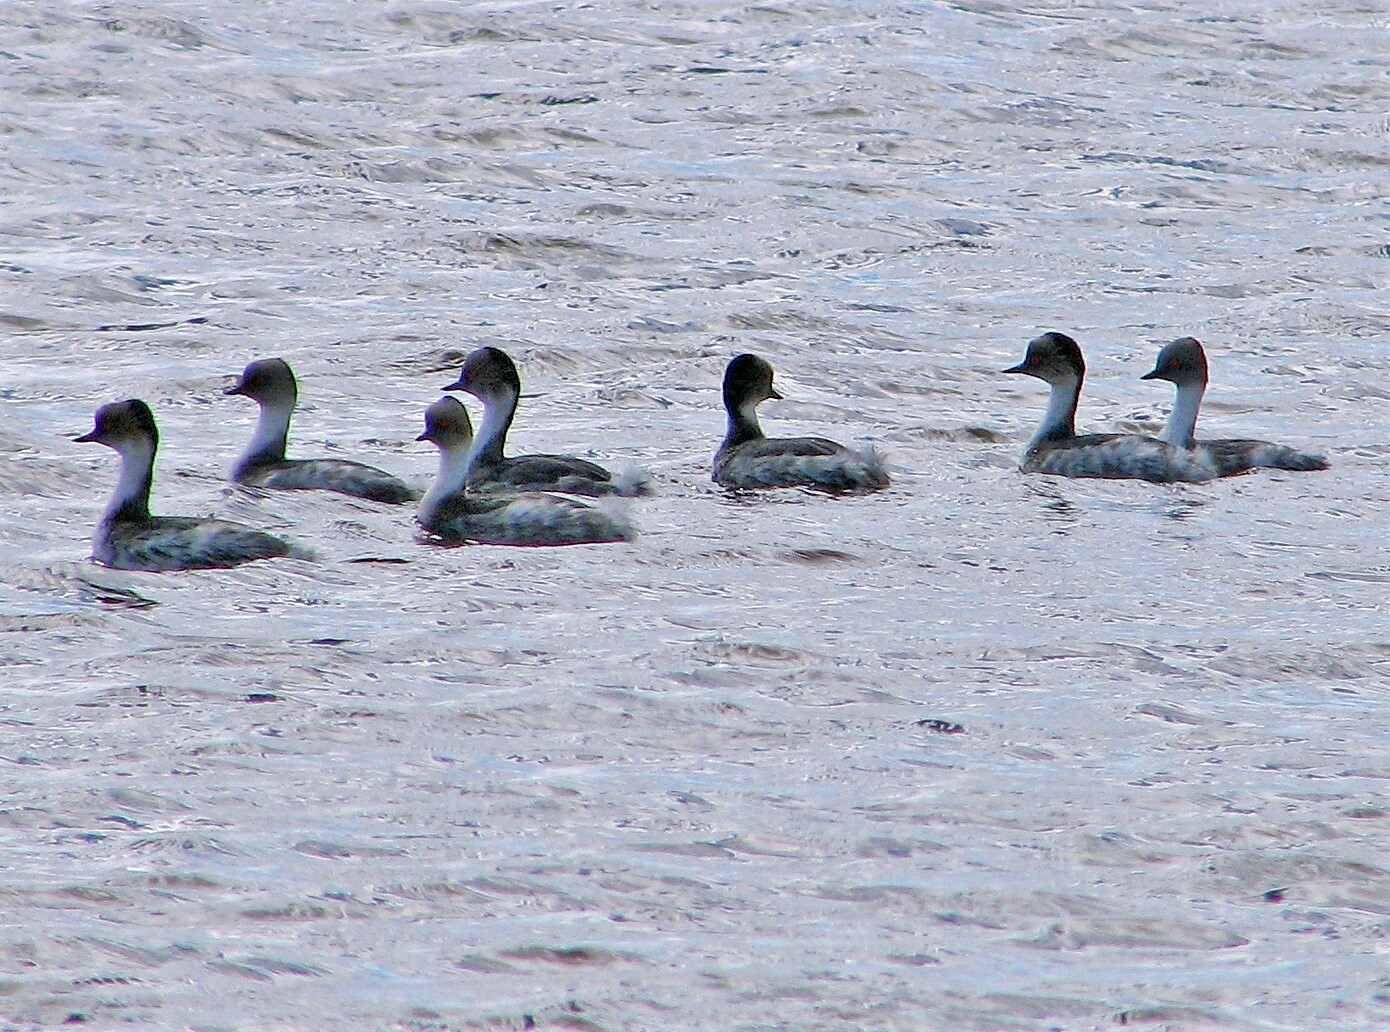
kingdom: Animalia
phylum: Chordata
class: Aves
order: Podicipediformes
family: Podicipedidae
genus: Podiceps
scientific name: Podiceps occipitalis
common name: Silvery grebe
